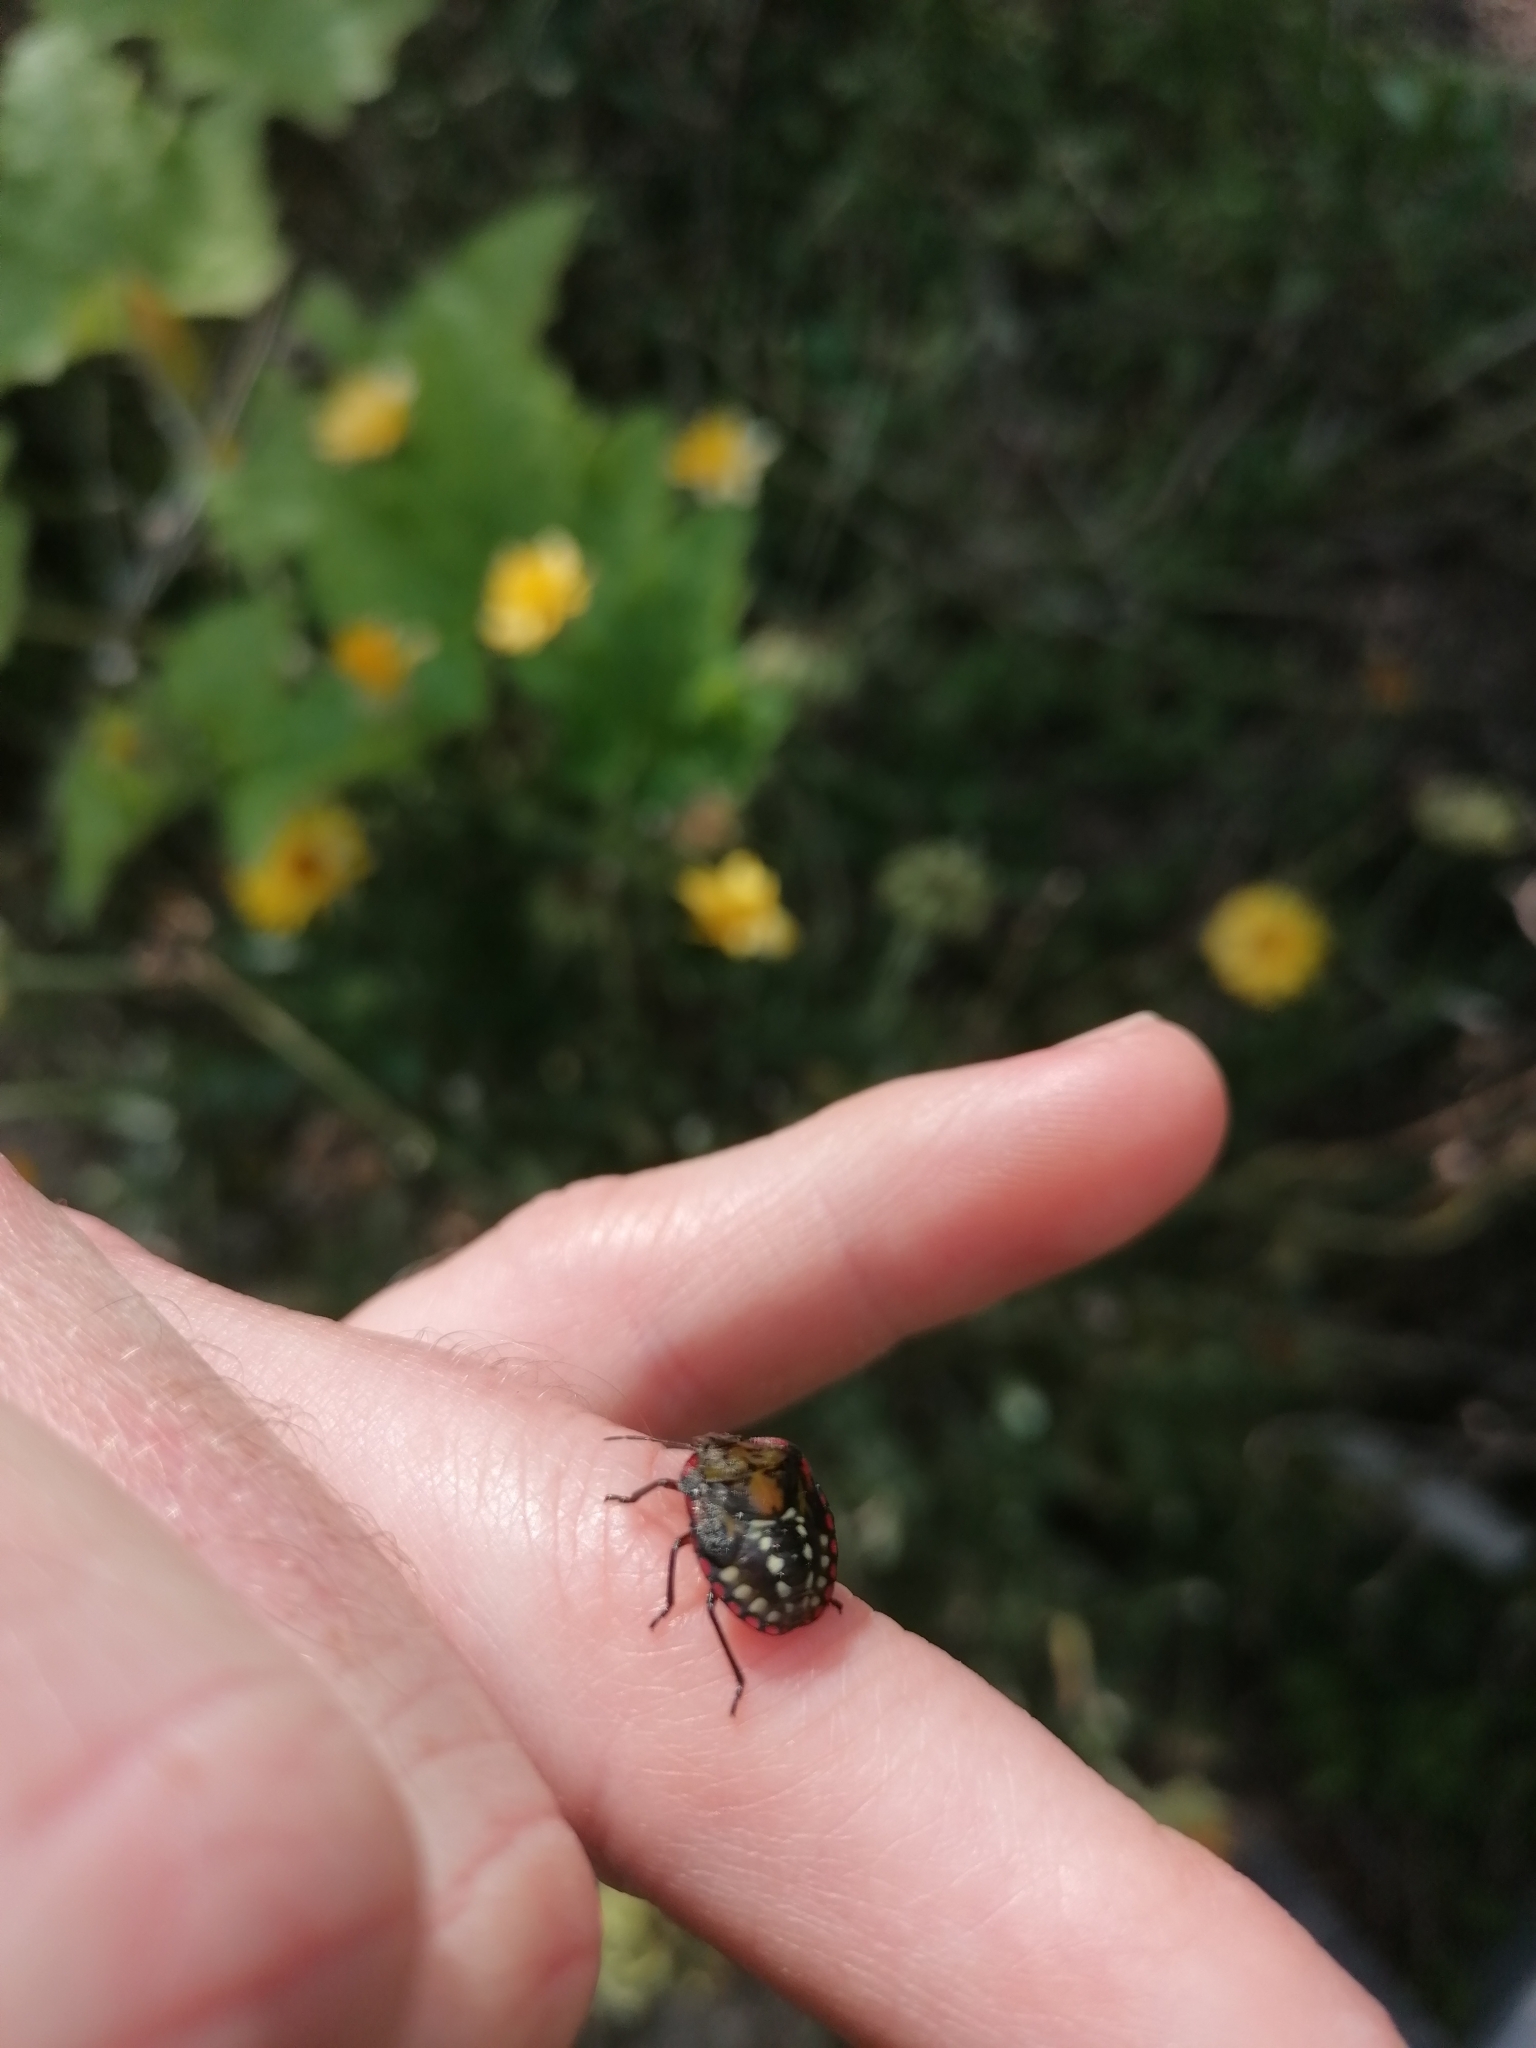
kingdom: Animalia
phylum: Arthropoda
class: Insecta
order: Hemiptera
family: Pentatomidae
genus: Nezara
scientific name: Nezara viridula
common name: Southern green stink bug
